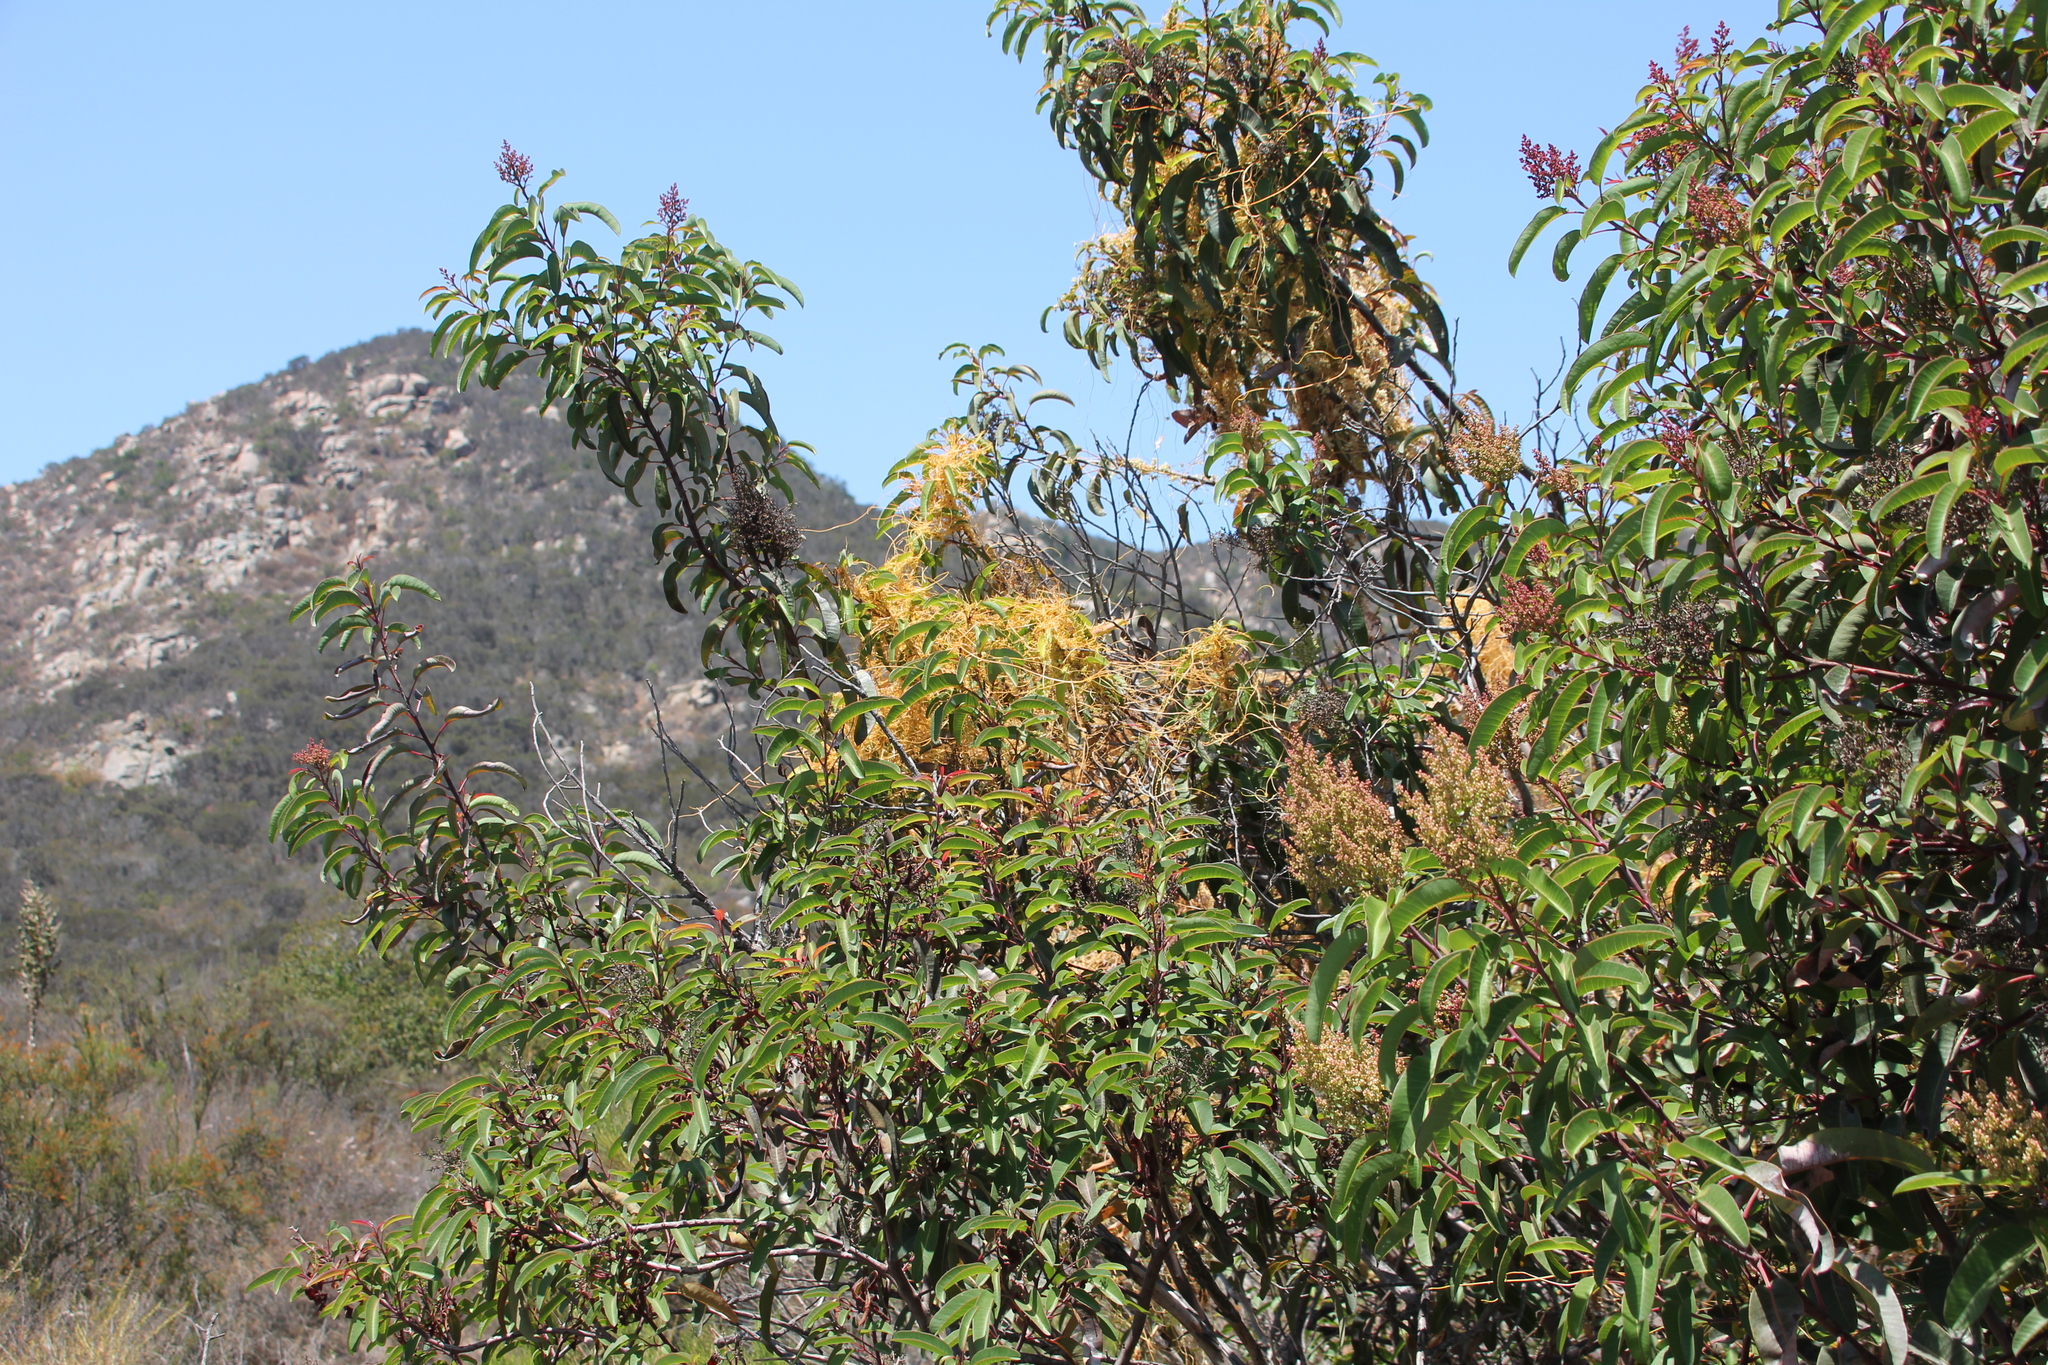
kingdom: Plantae
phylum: Tracheophyta
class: Magnoliopsida
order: Solanales
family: Convolvulaceae
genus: Cuscuta
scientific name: Cuscuta subinclusa
